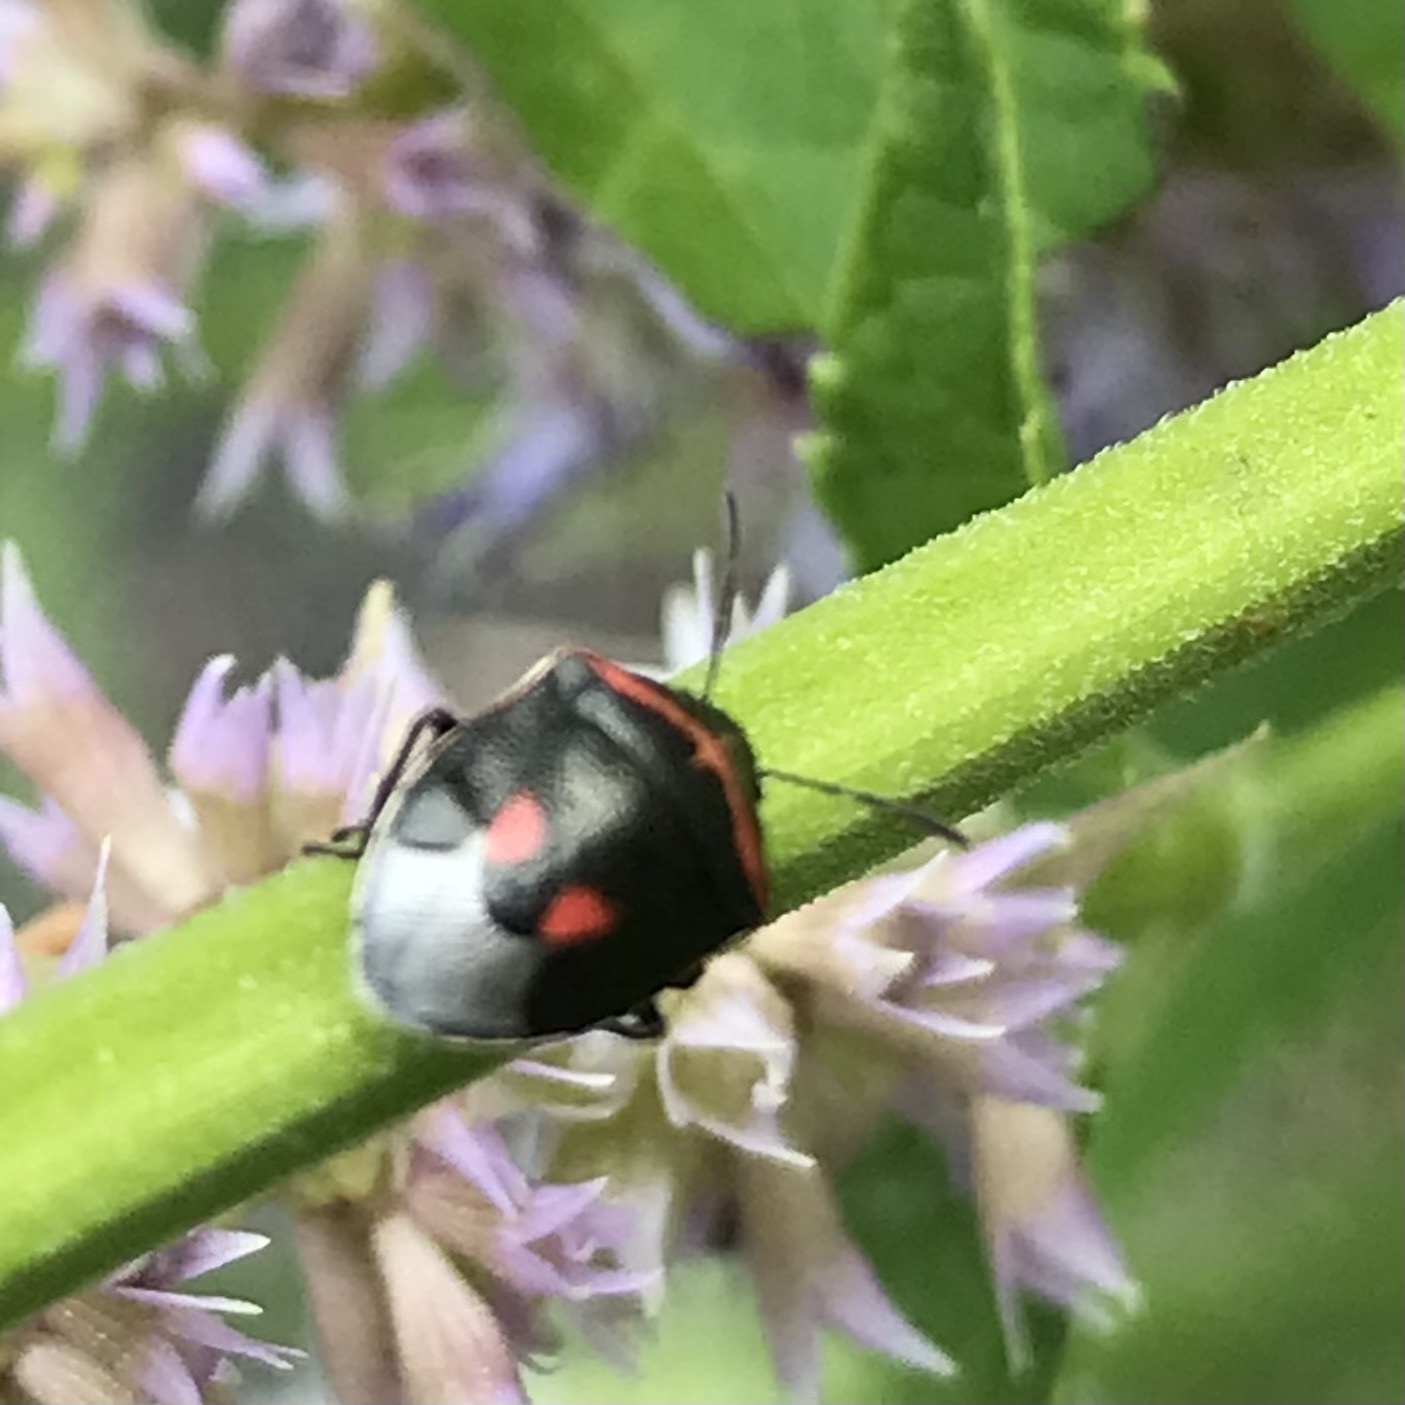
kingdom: Animalia
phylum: Arthropoda
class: Insecta
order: Hemiptera
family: Pentatomidae
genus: Cosmopepla
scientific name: Cosmopepla lintneriana
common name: Twice-stabbed stink bug
